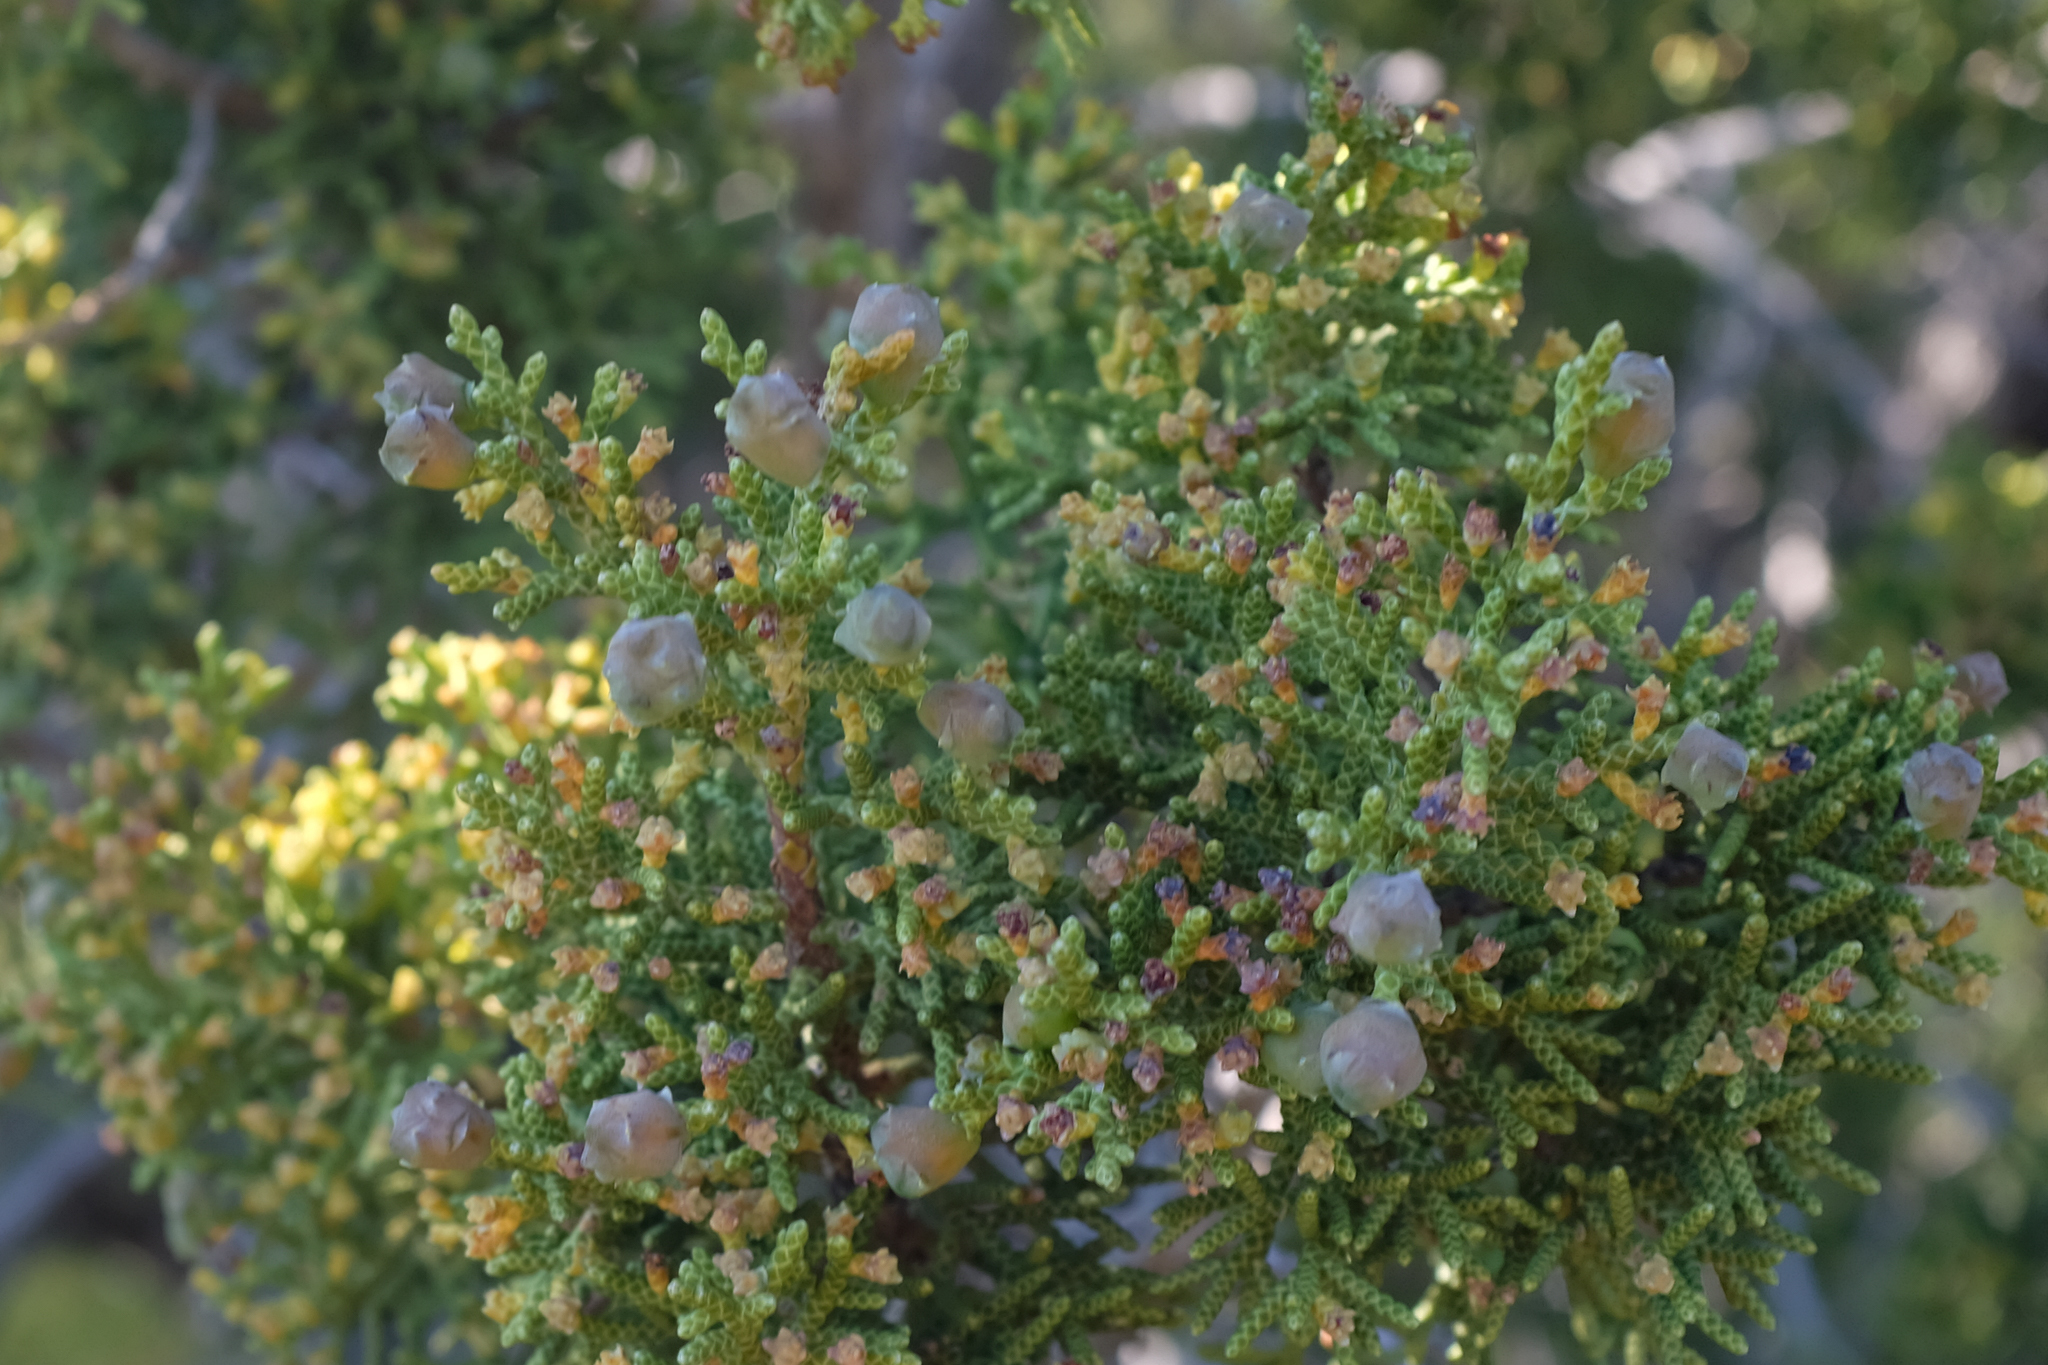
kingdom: Plantae
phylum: Tracheophyta
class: Pinopsida
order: Pinales
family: Cupressaceae
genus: Juniperus
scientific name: Juniperus californica
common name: California juniper
